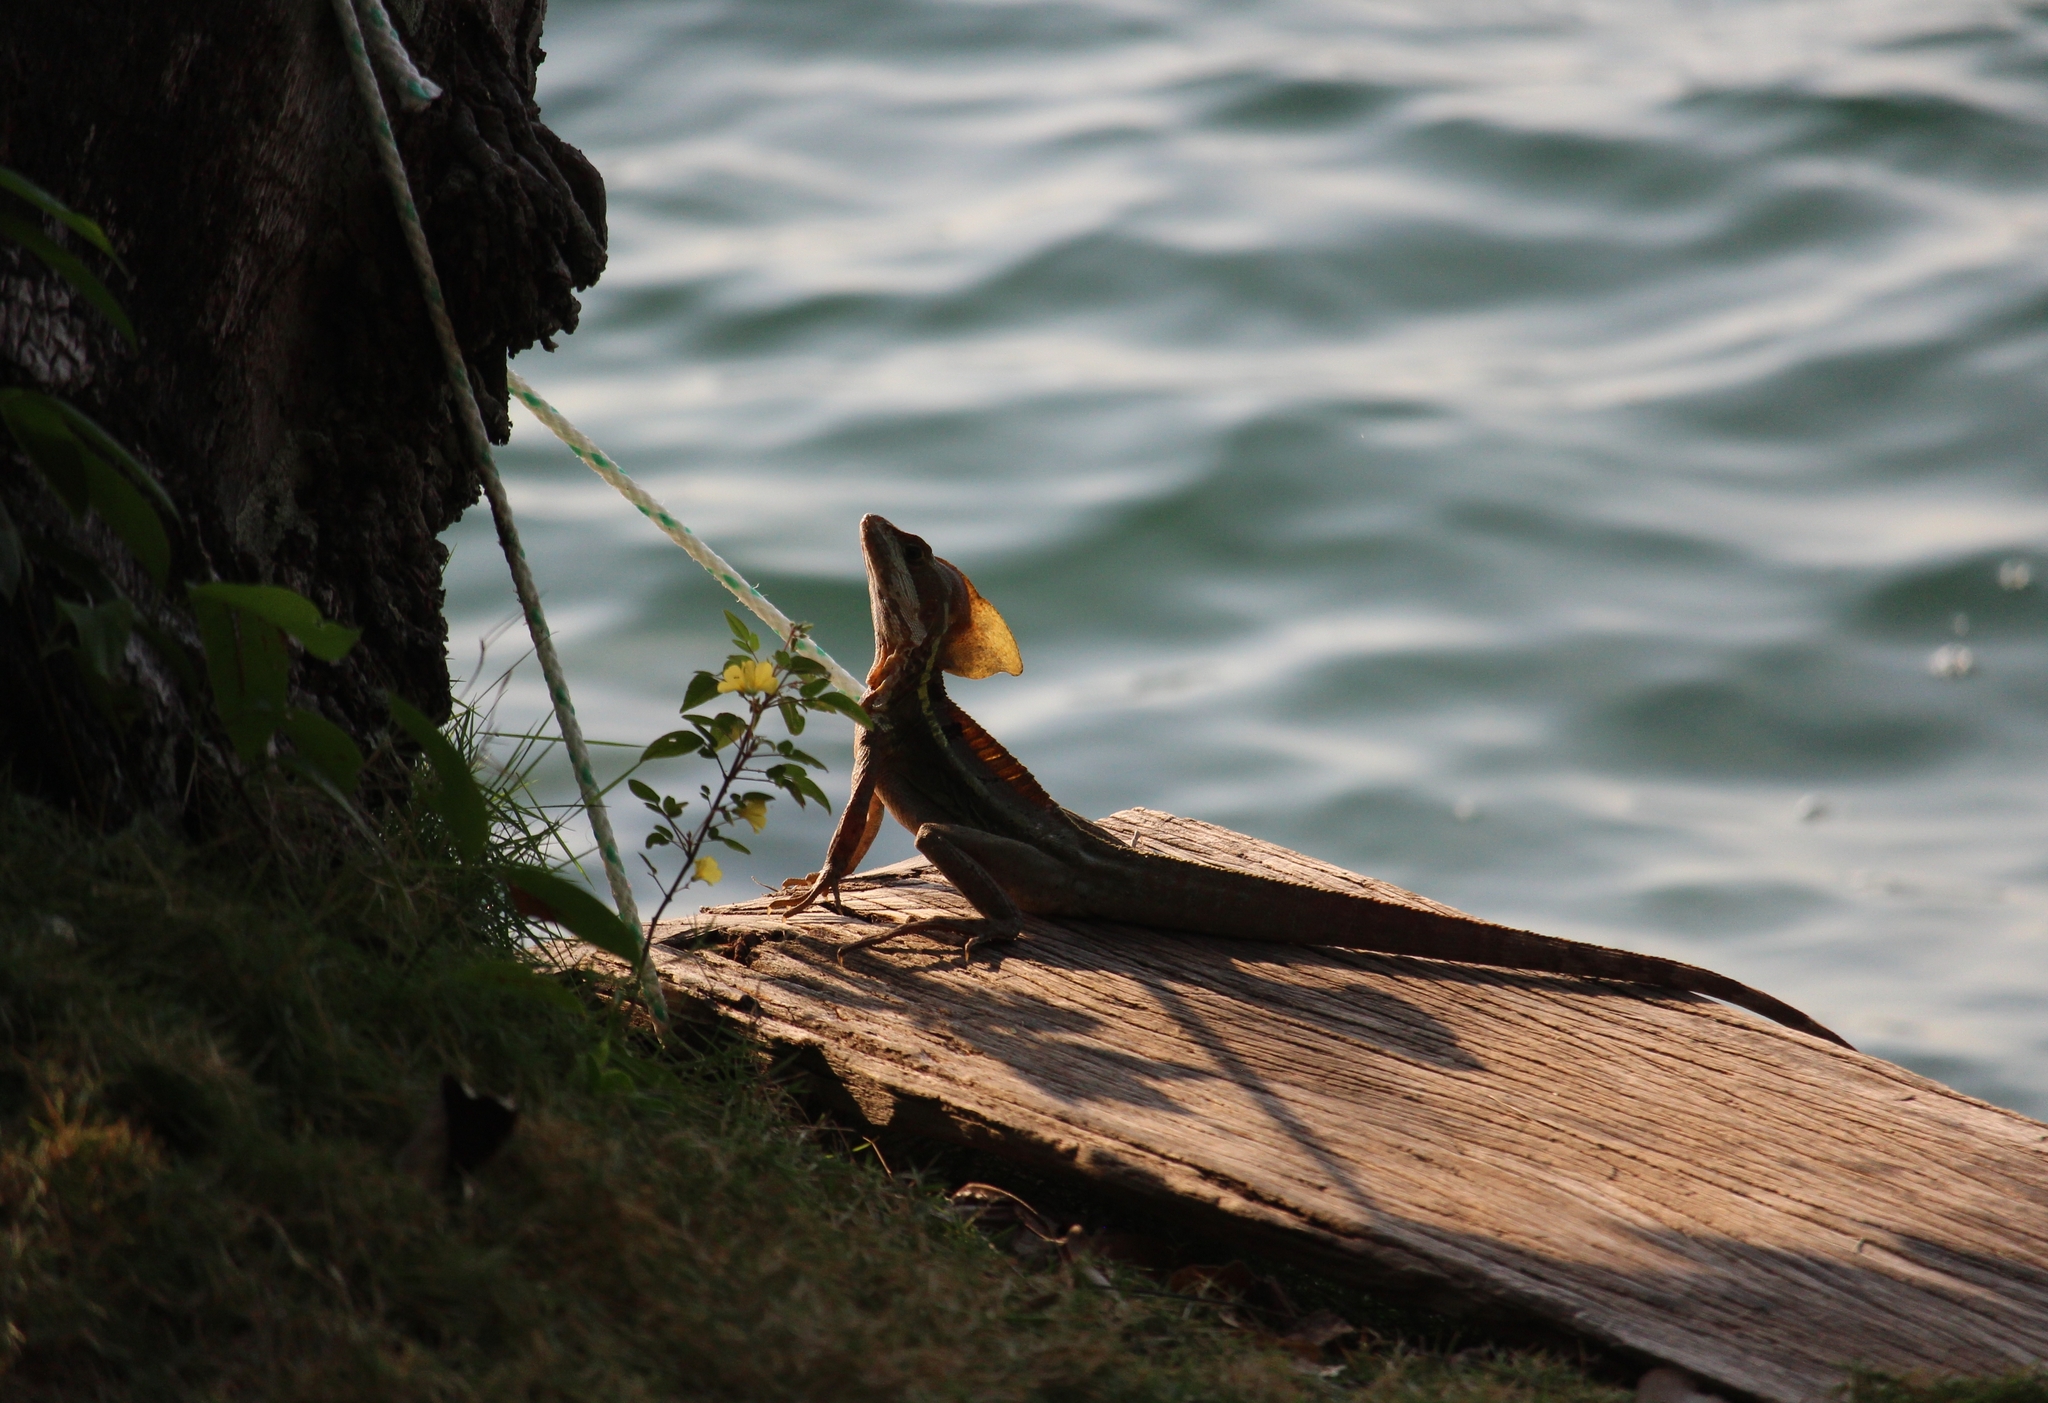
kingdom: Animalia
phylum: Chordata
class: Squamata
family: Corytophanidae
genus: Basiliscus
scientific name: Basiliscus vittatus
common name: Brown basilisk
